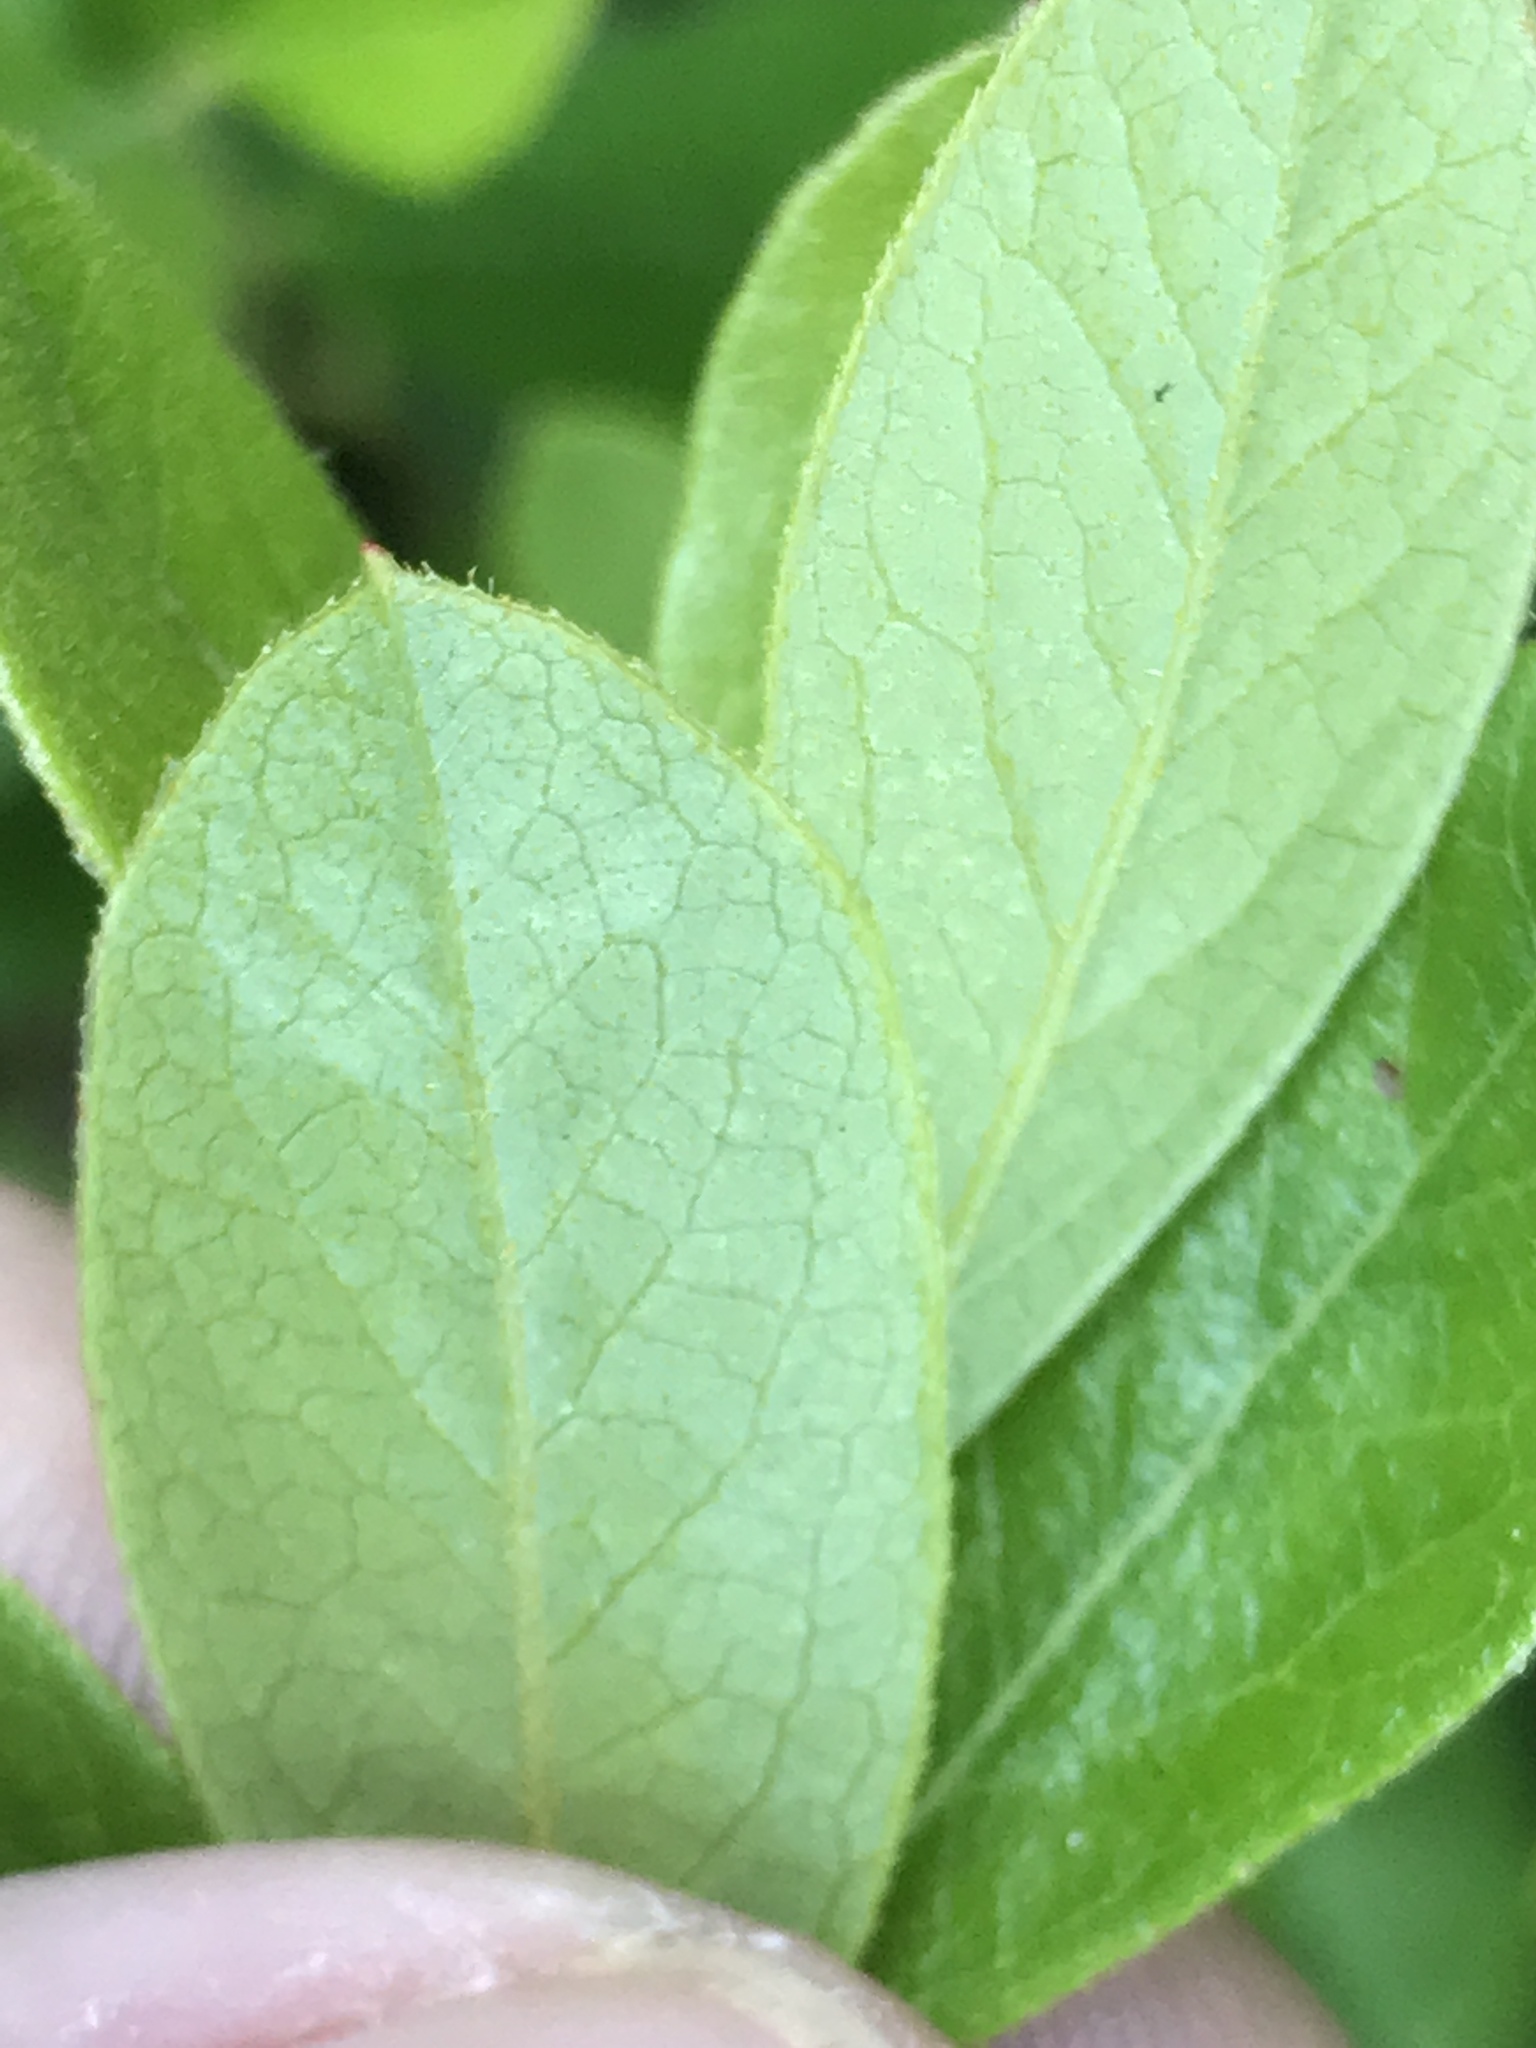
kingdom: Plantae
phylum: Tracheophyta
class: Magnoliopsida
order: Ericales
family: Ericaceae
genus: Gaylussacia
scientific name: Gaylussacia dumosa
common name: Dwarf huckleberry
